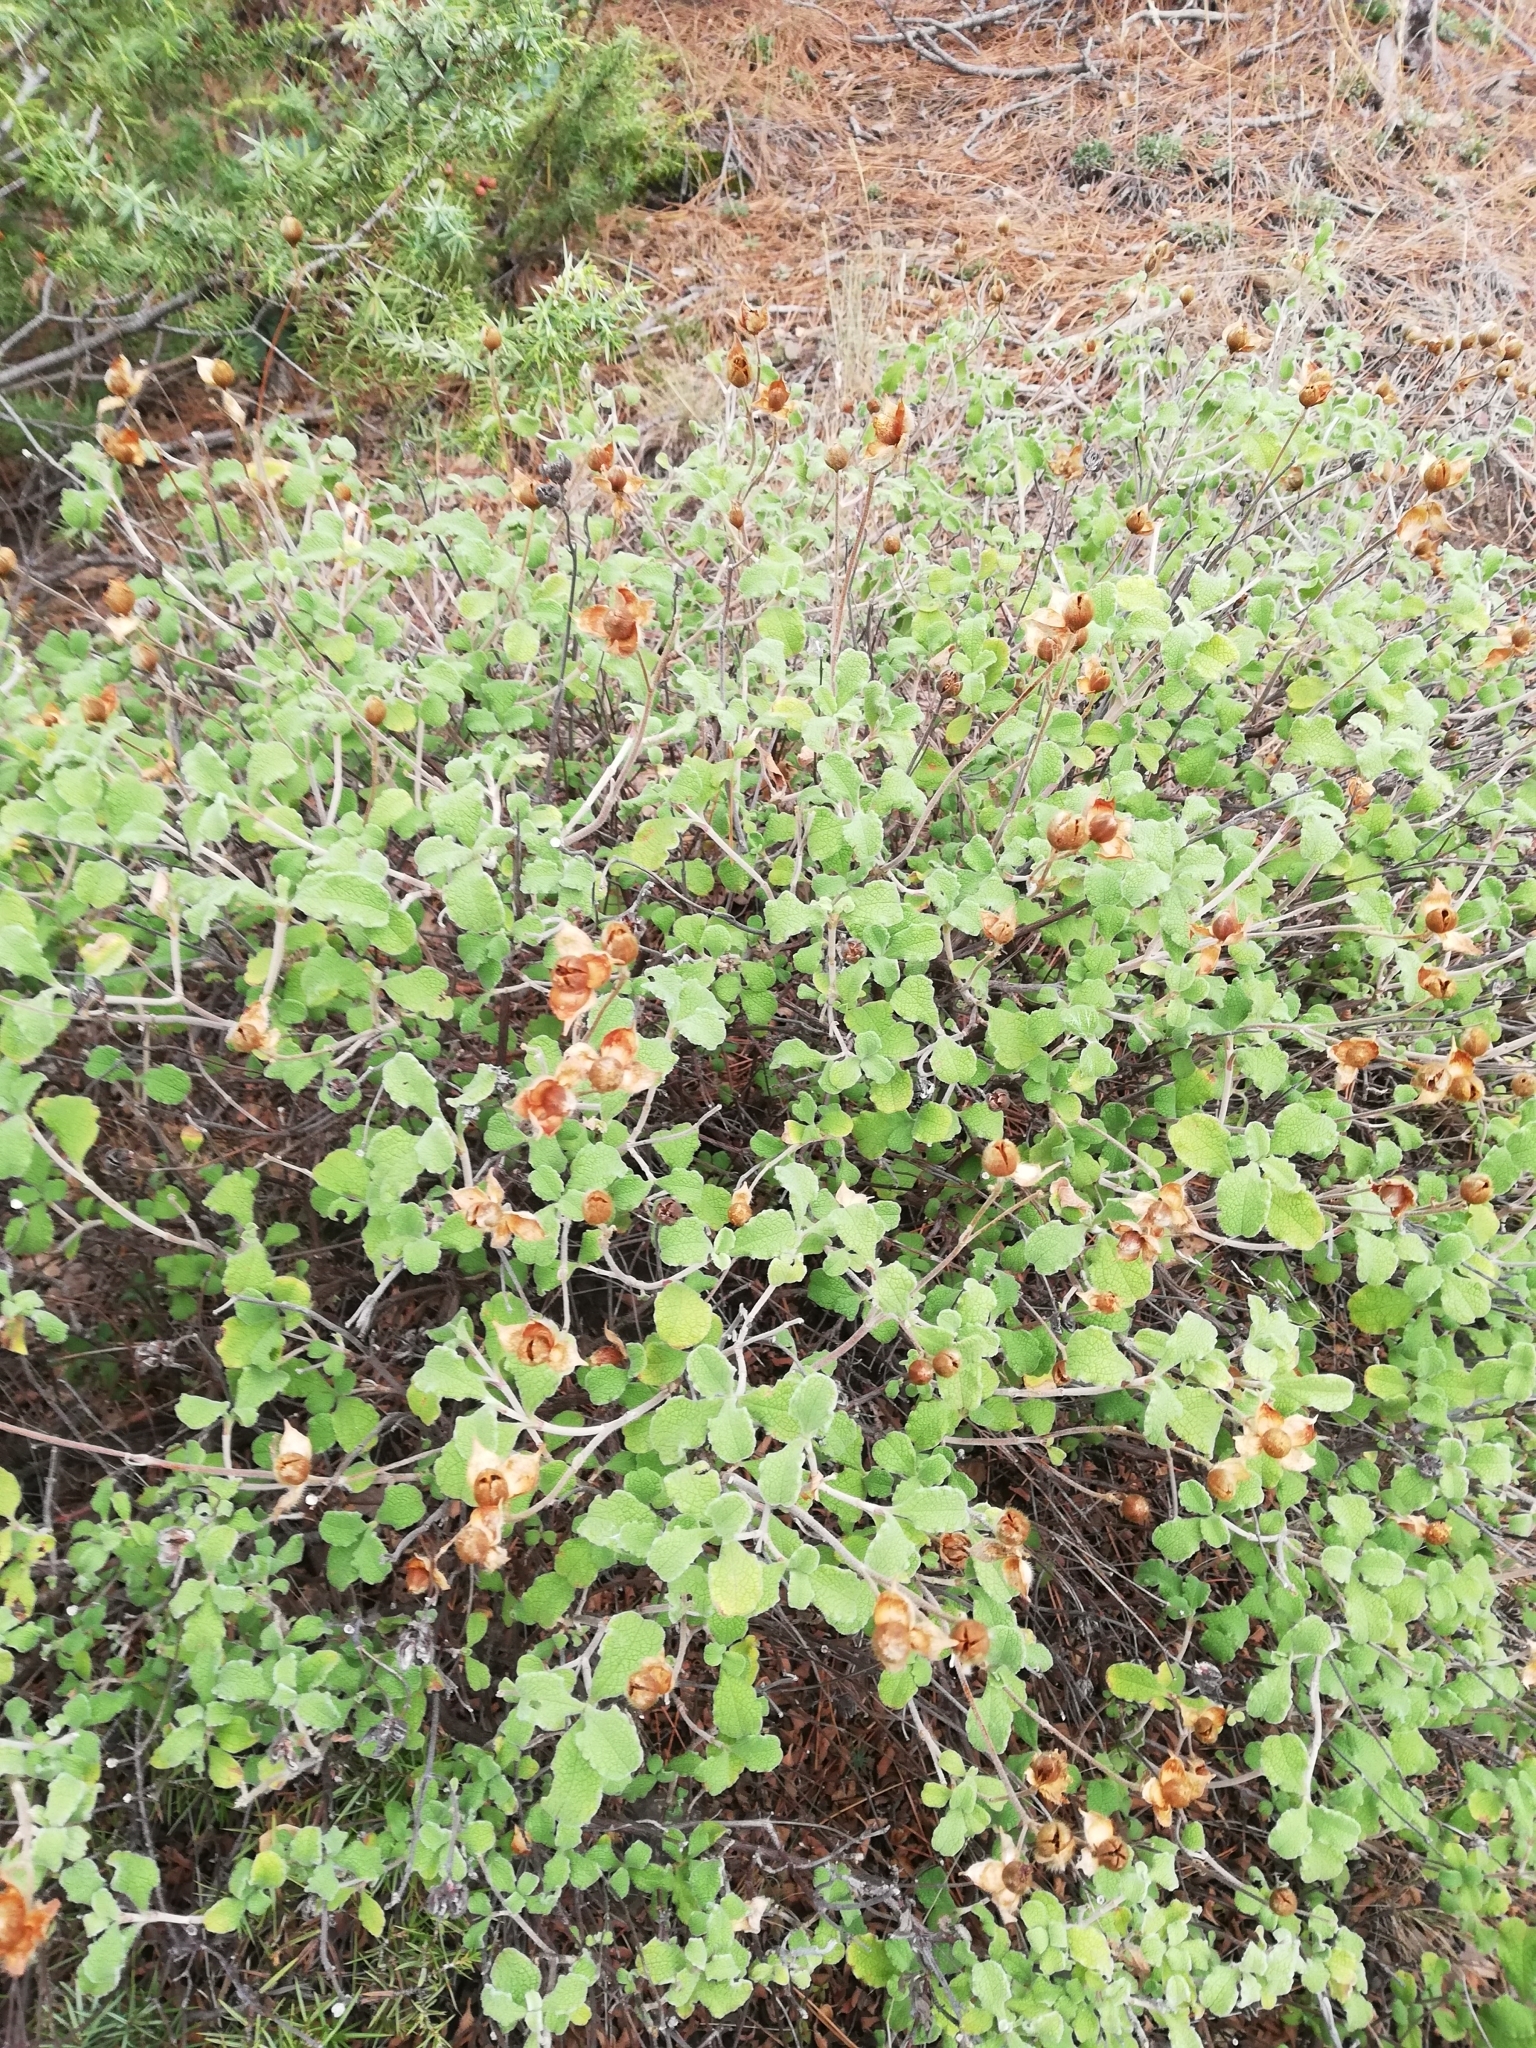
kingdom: Plantae
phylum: Tracheophyta
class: Magnoliopsida
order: Malvales
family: Cistaceae
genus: Cistus
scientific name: Cistus tauricus
